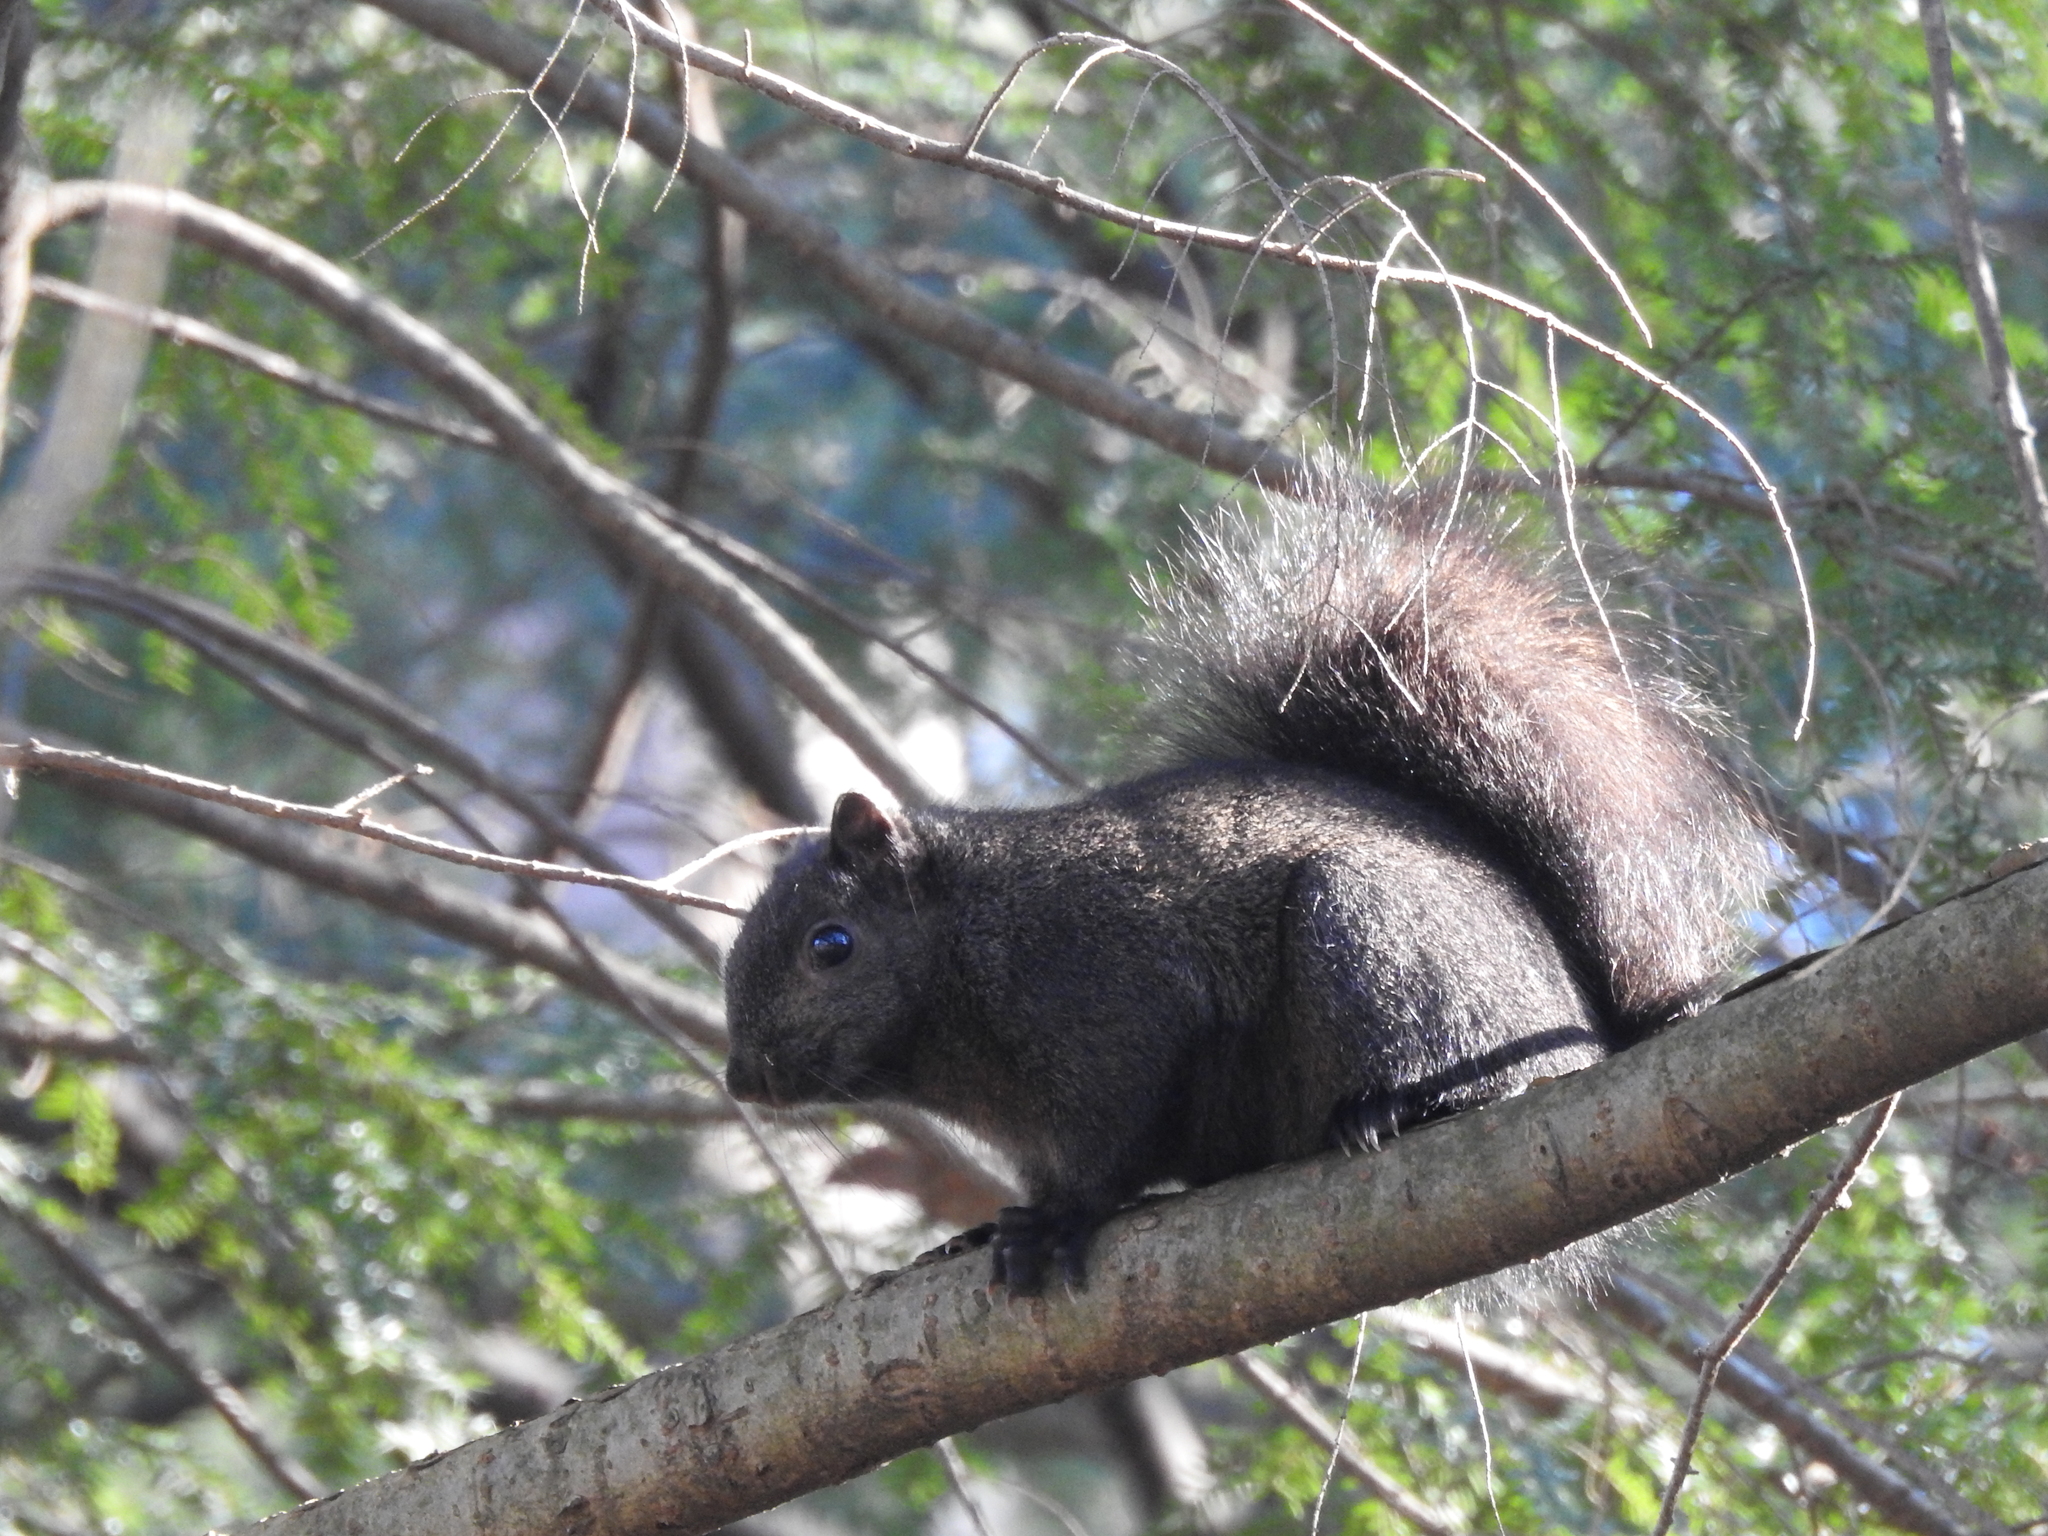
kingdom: Animalia
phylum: Chordata
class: Mammalia
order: Rodentia
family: Sciuridae
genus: Sciurus
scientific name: Sciurus carolinensis
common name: Eastern gray squirrel
